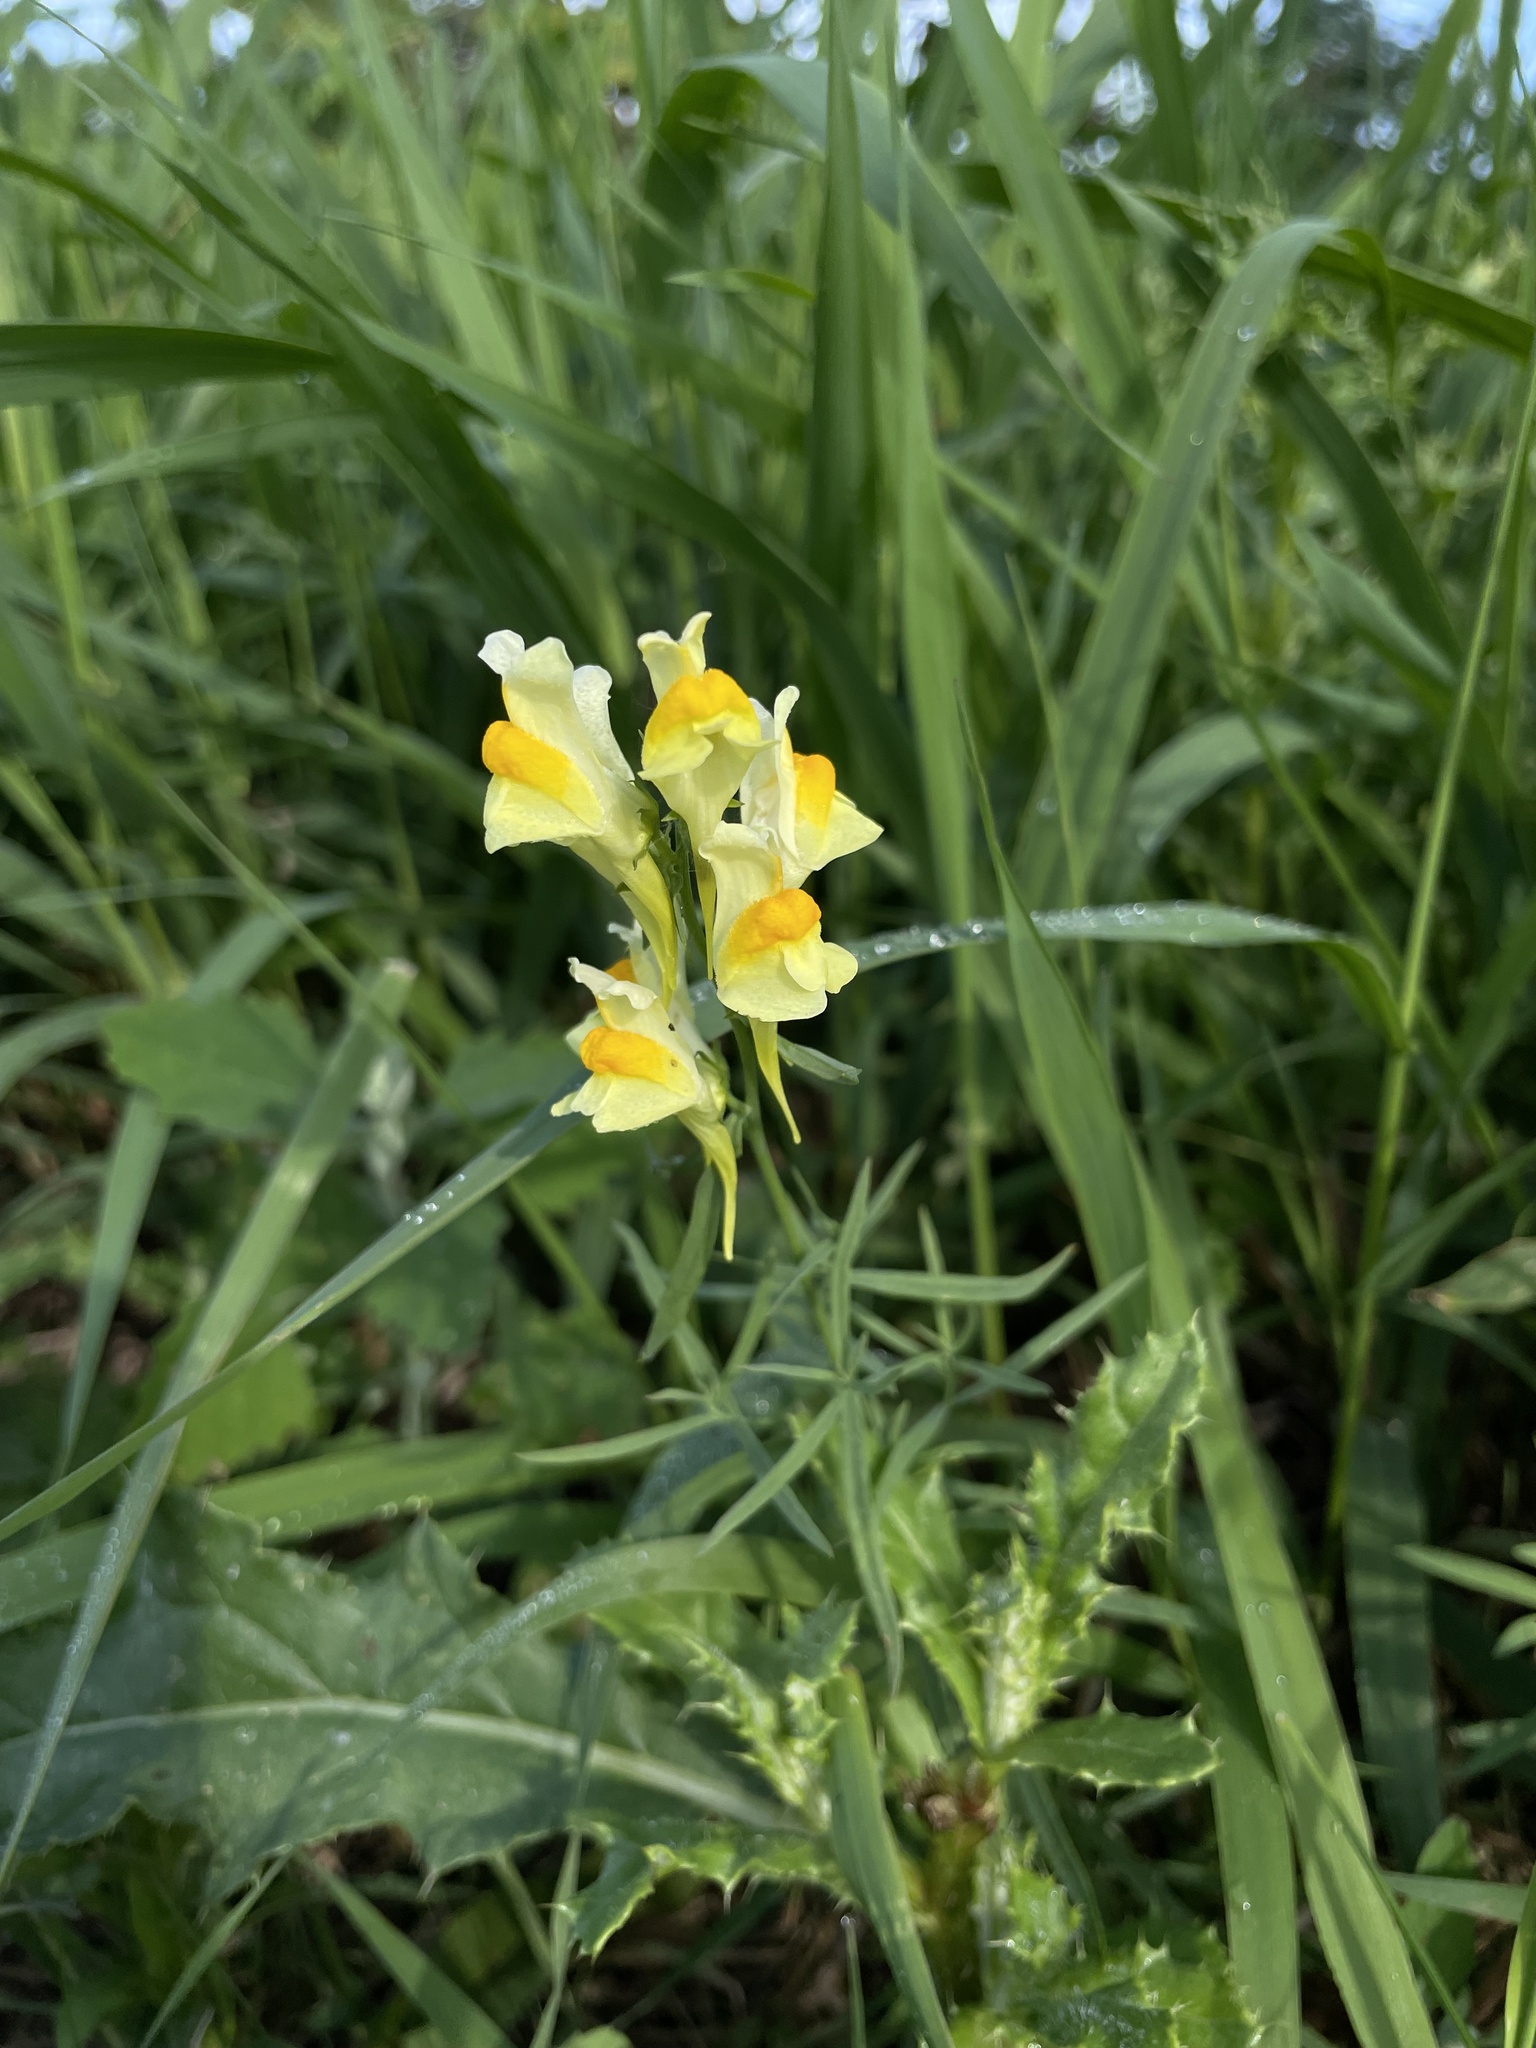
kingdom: Plantae
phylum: Tracheophyta
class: Magnoliopsida
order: Lamiales
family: Plantaginaceae
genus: Linaria
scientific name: Linaria vulgaris
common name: Butter and eggs
